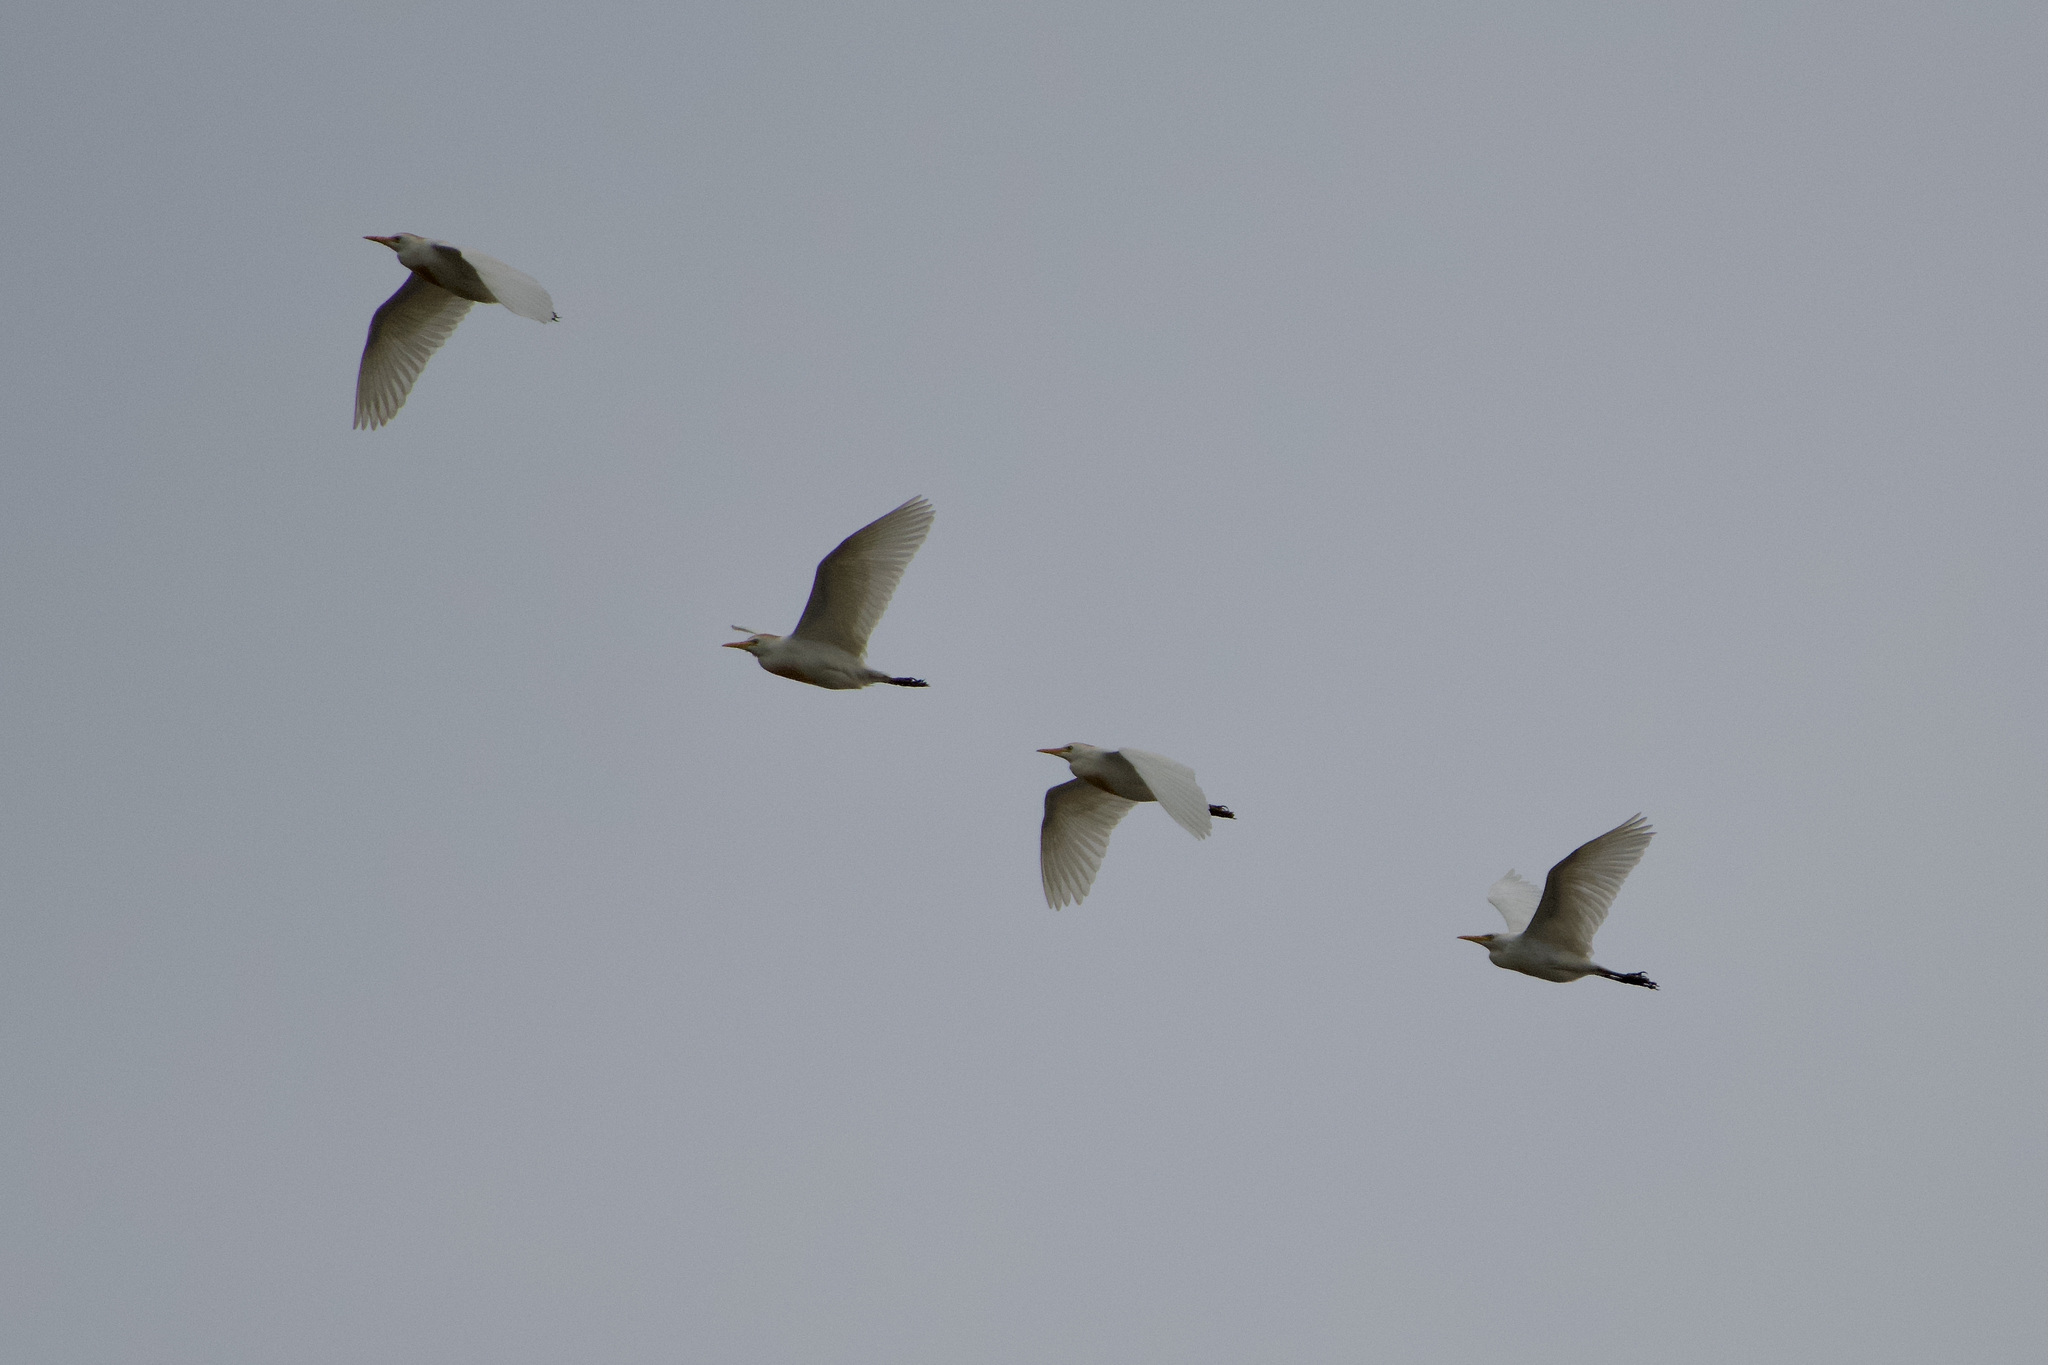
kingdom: Animalia
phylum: Chordata
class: Aves
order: Pelecaniformes
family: Ardeidae
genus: Bubulcus
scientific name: Bubulcus ibis
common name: Cattle egret
